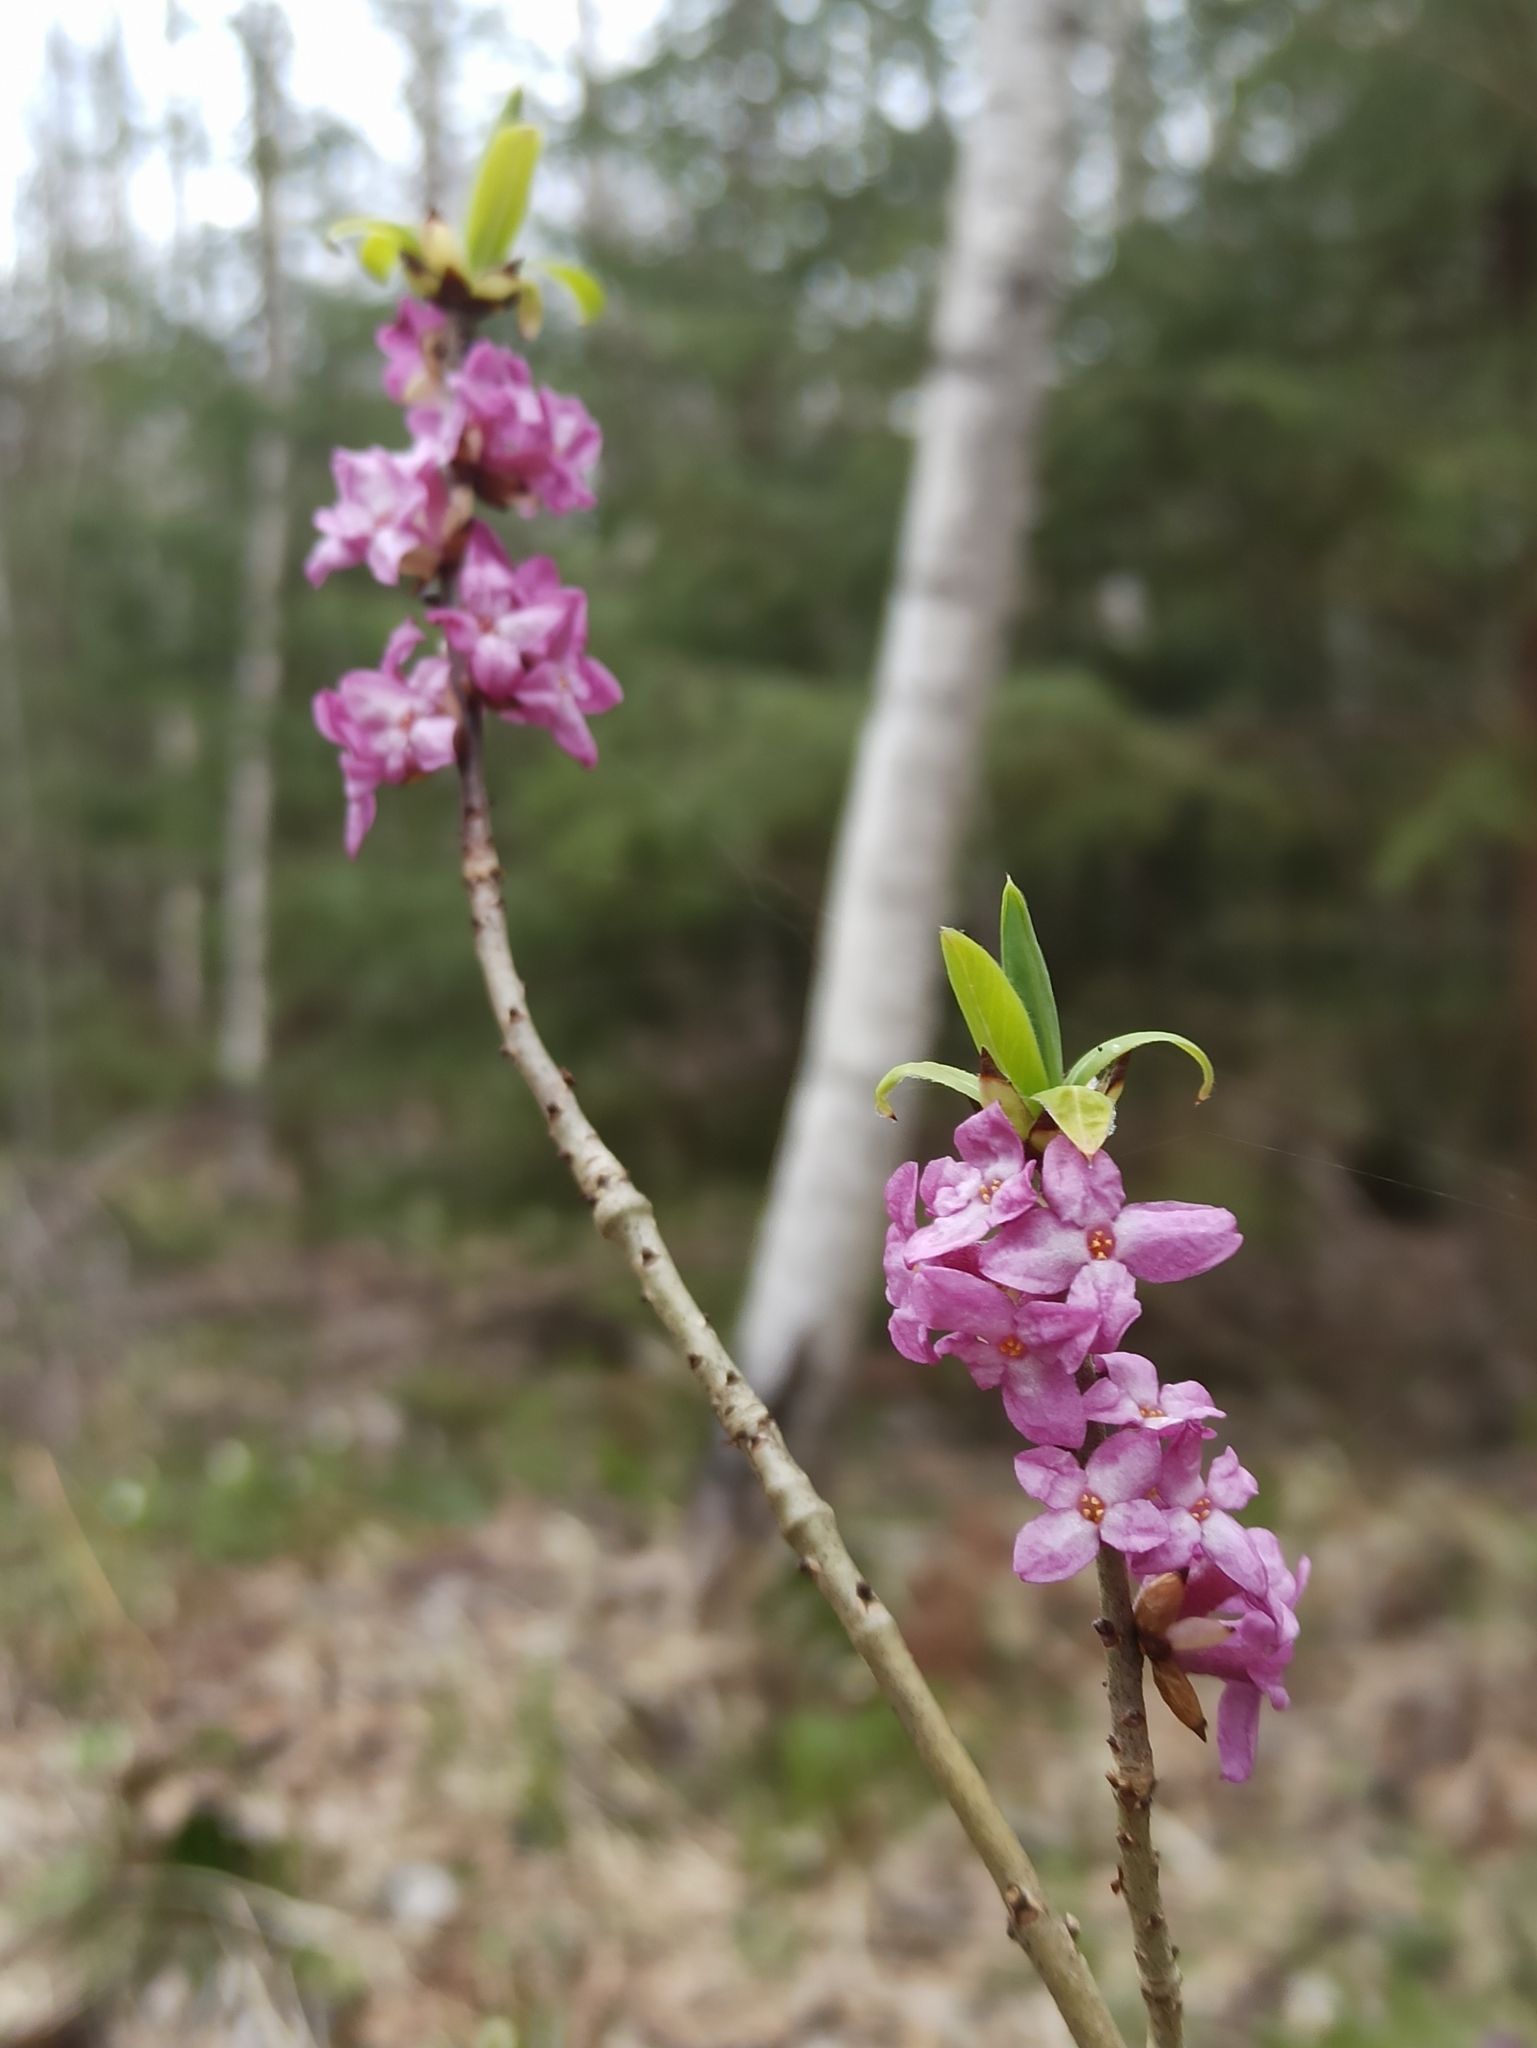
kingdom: Plantae
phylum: Tracheophyta
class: Magnoliopsida
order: Malvales
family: Thymelaeaceae
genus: Daphne
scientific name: Daphne mezereum
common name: Mezereon
